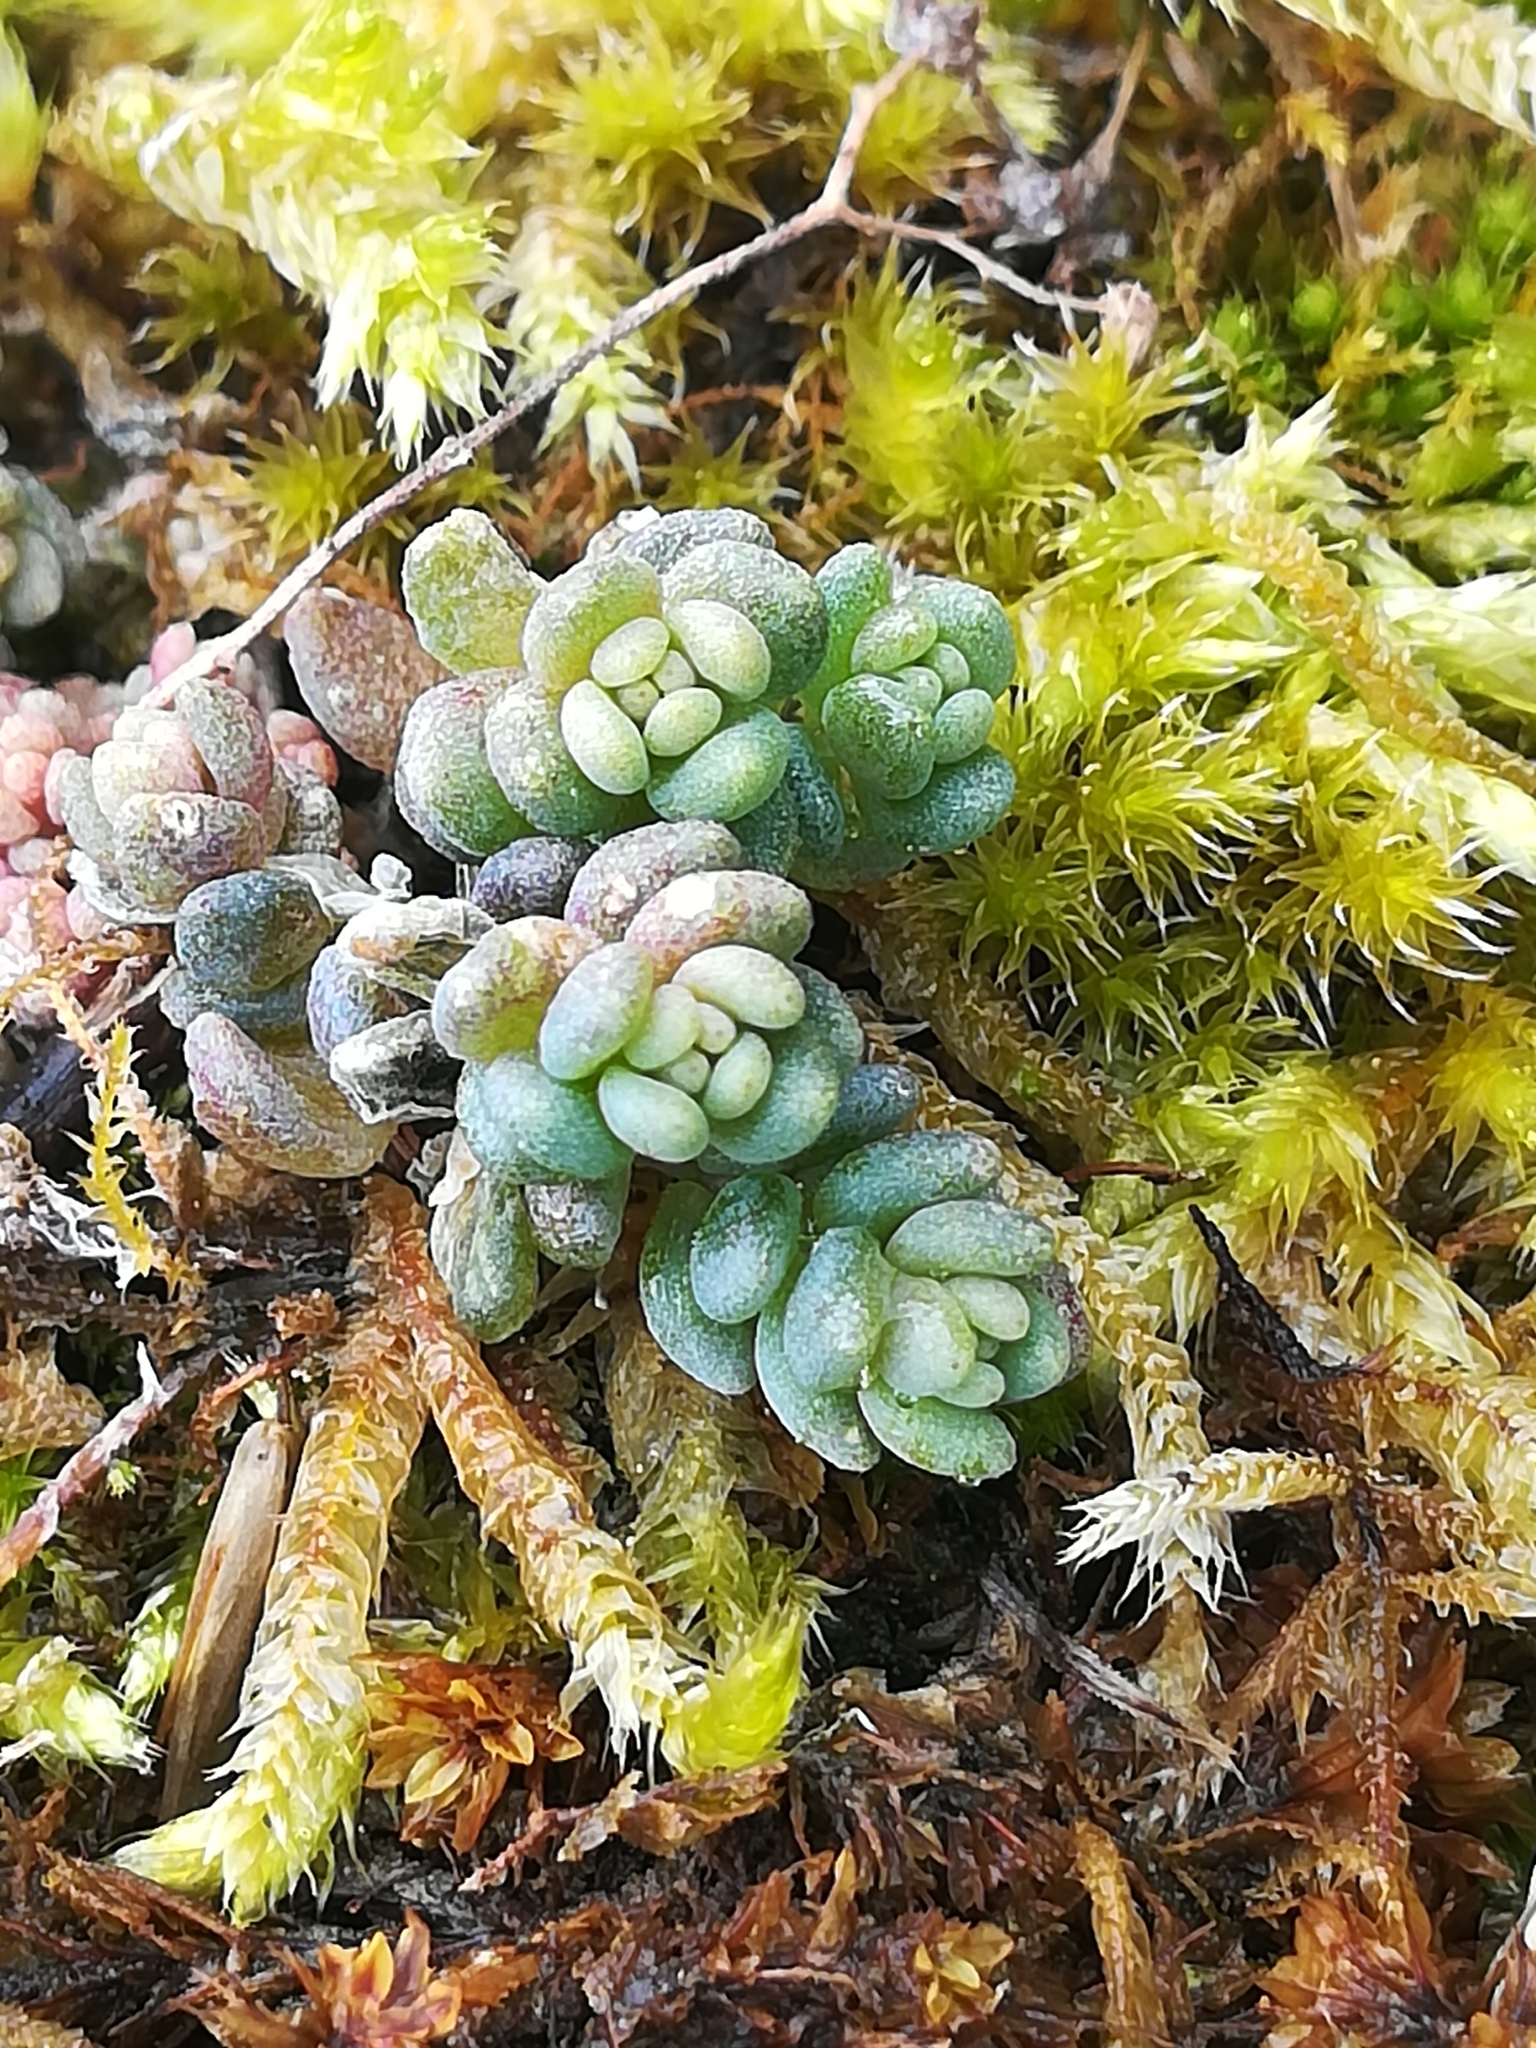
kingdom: Plantae
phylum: Tracheophyta
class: Magnoliopsida
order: Saxifragales
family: Crassulaceae
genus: Sedum
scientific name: Sedum dasyphyllum
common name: Thick-leaf stonecrop
